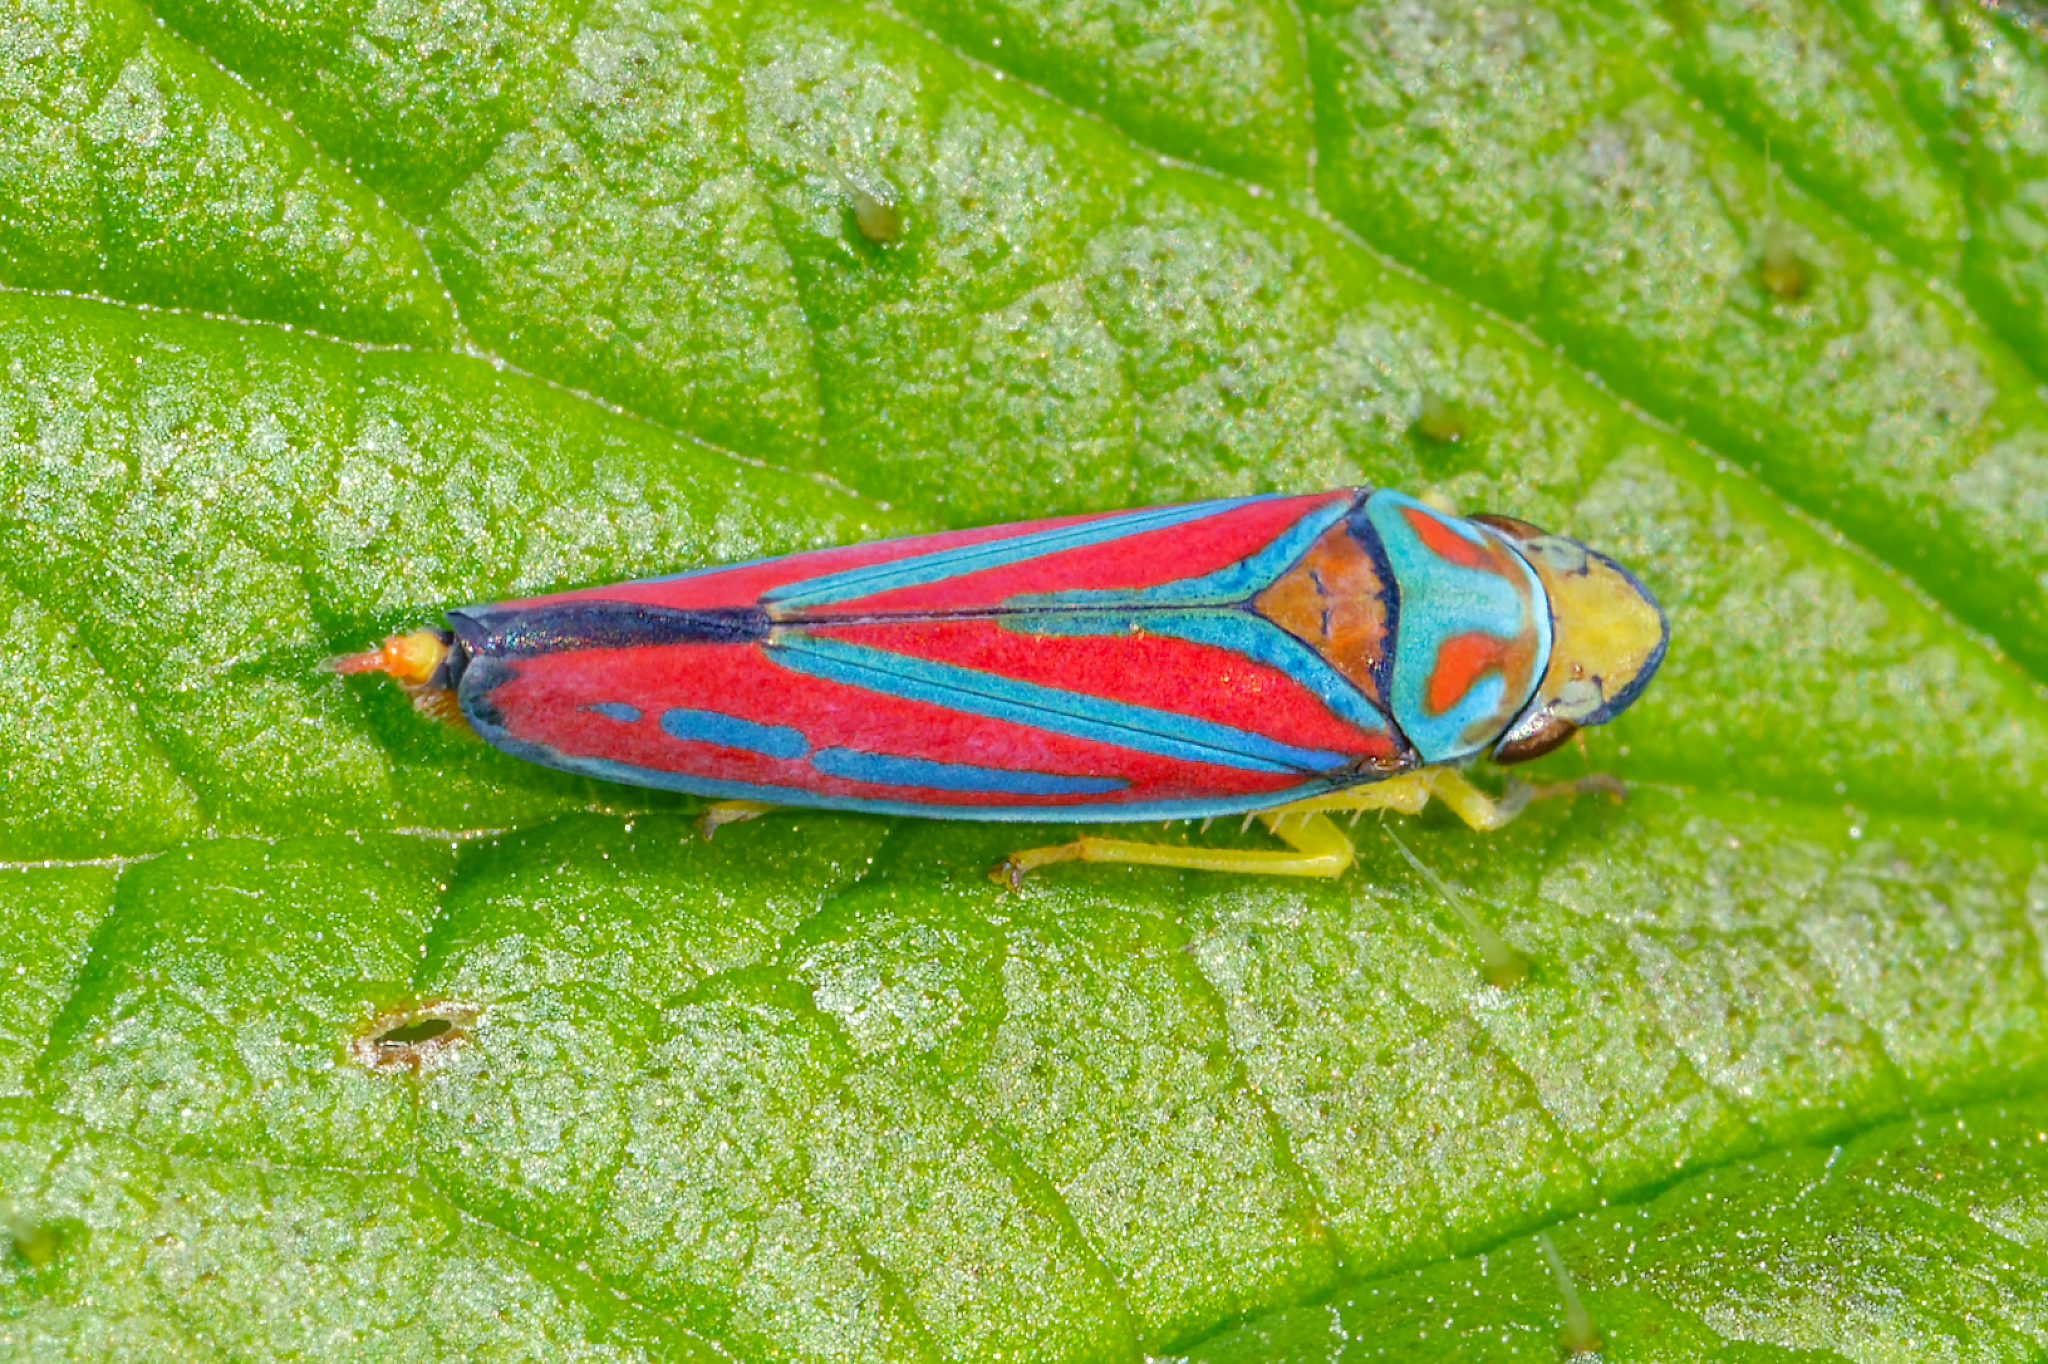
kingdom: Animalia
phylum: Arthropoda
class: Insecta
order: Hemiptera
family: Cicadellidae
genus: Graphocephala
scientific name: Graphocephala coccinea
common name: Candy-striped leafhopper
